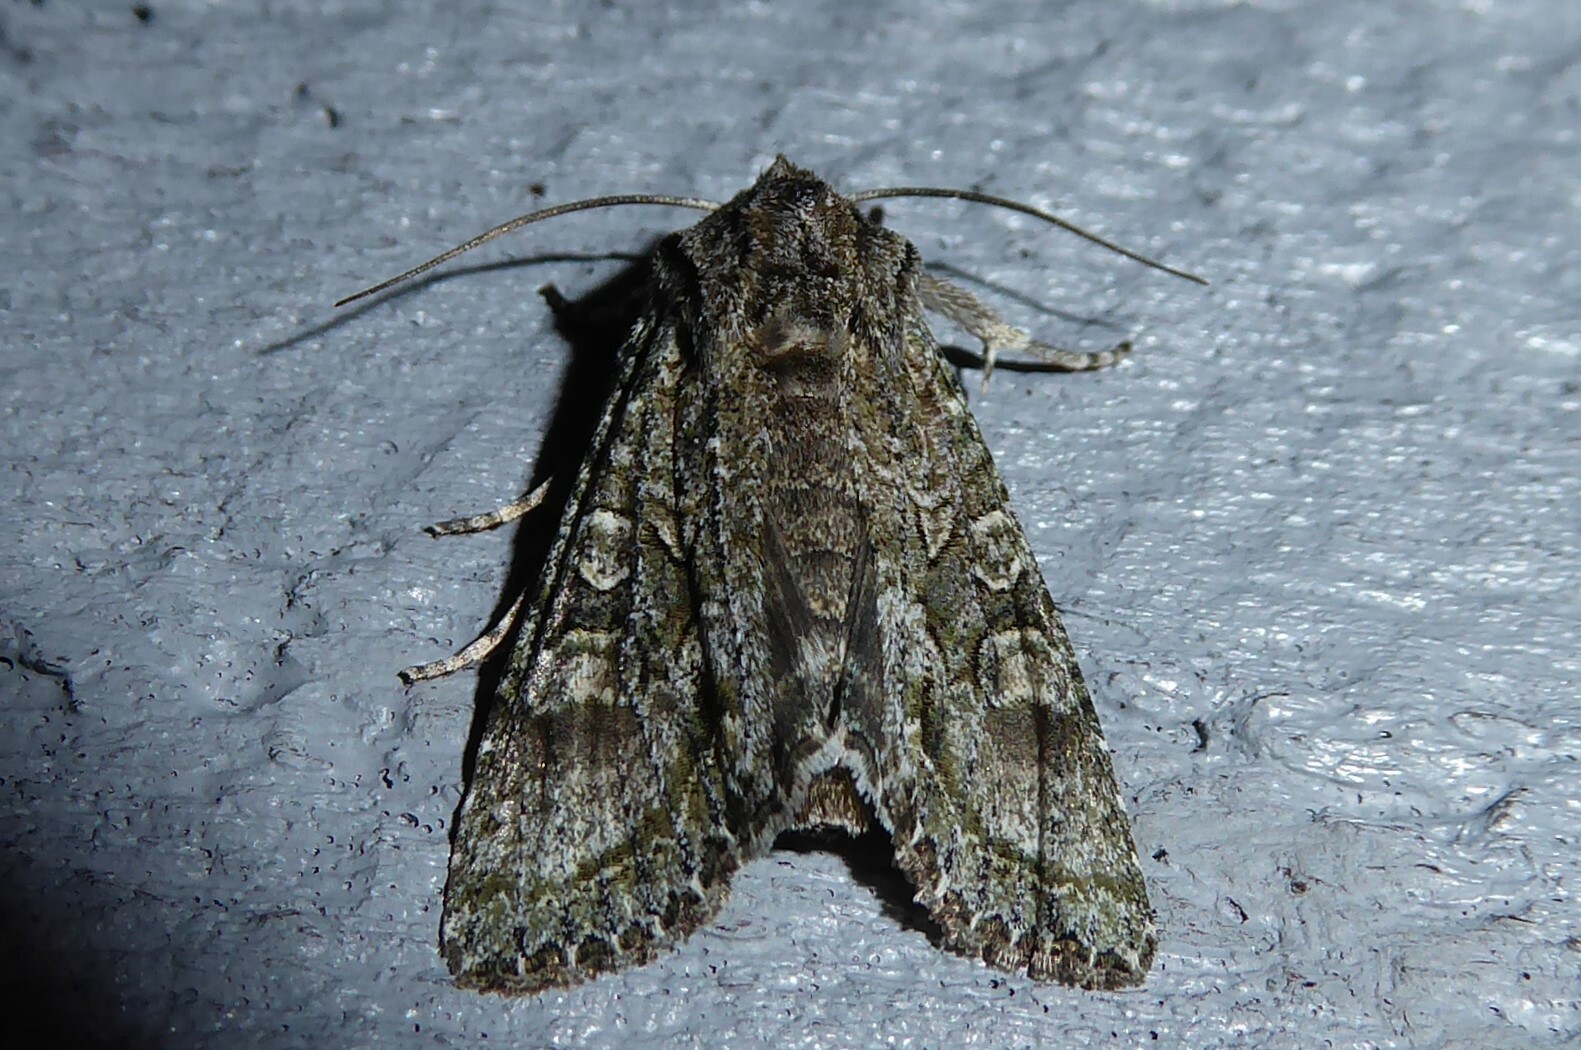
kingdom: Animalia
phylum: Arthropoda
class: Insecta
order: Lepidoptera
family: Noctuidae
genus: Ichneutica
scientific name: Ichneutica mutans
